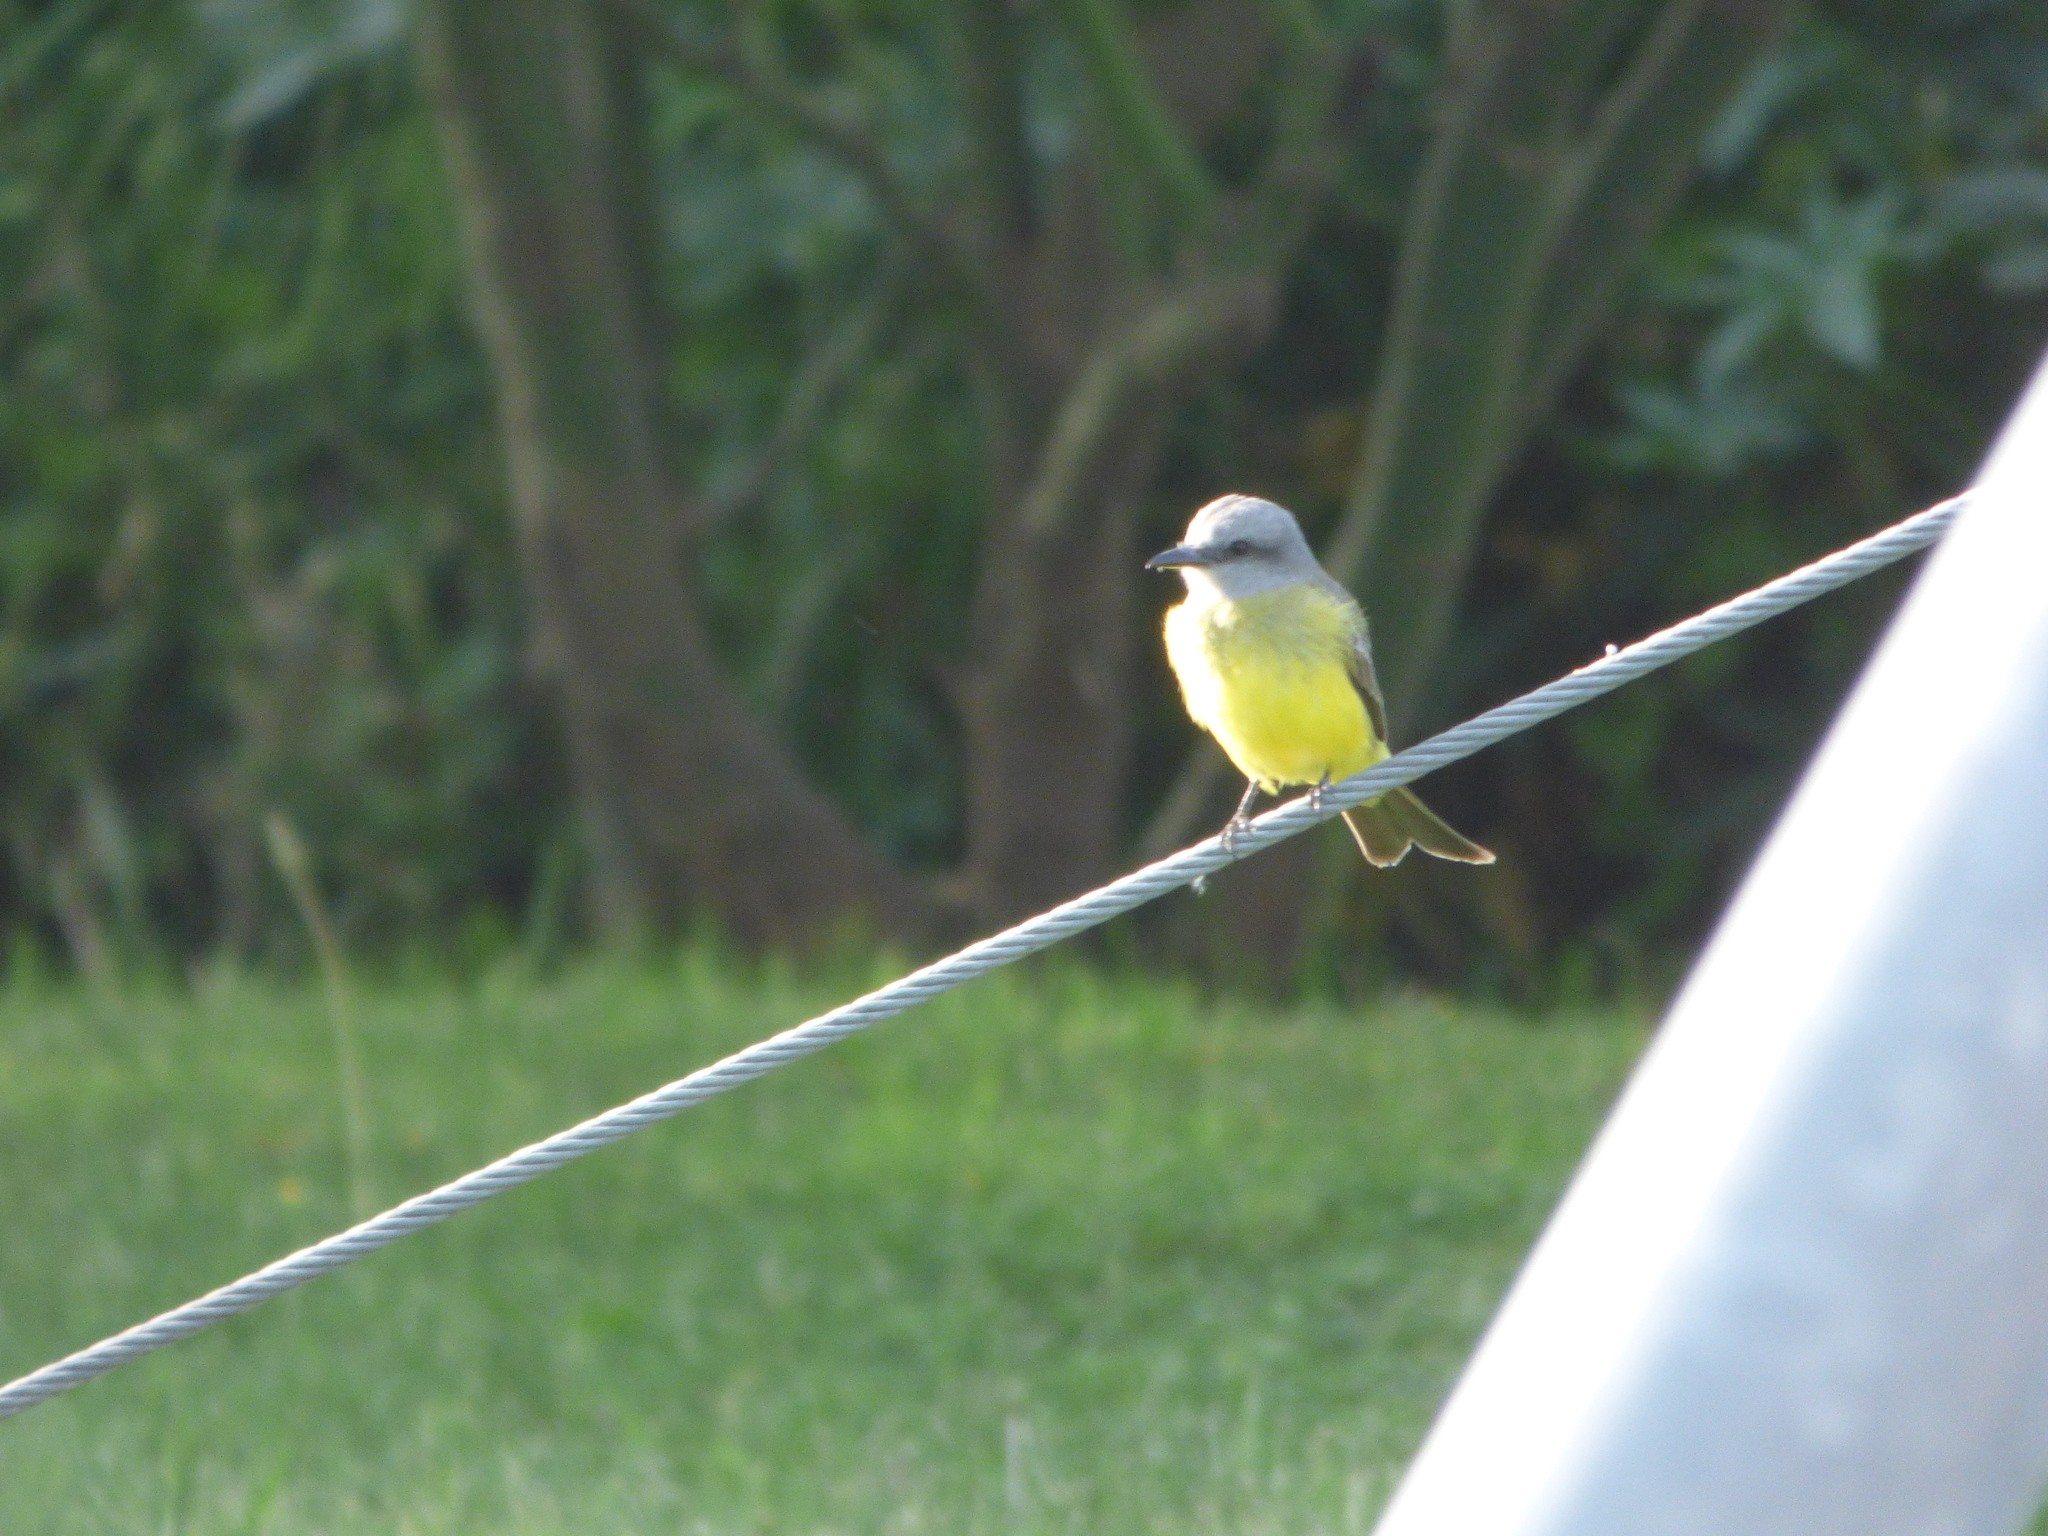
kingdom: Animalia
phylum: Chordata
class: Aves
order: Passeriformes
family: Tyrannidae
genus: Tyrannus
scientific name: Tyrannus melancholicus
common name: Tropical kingbird
